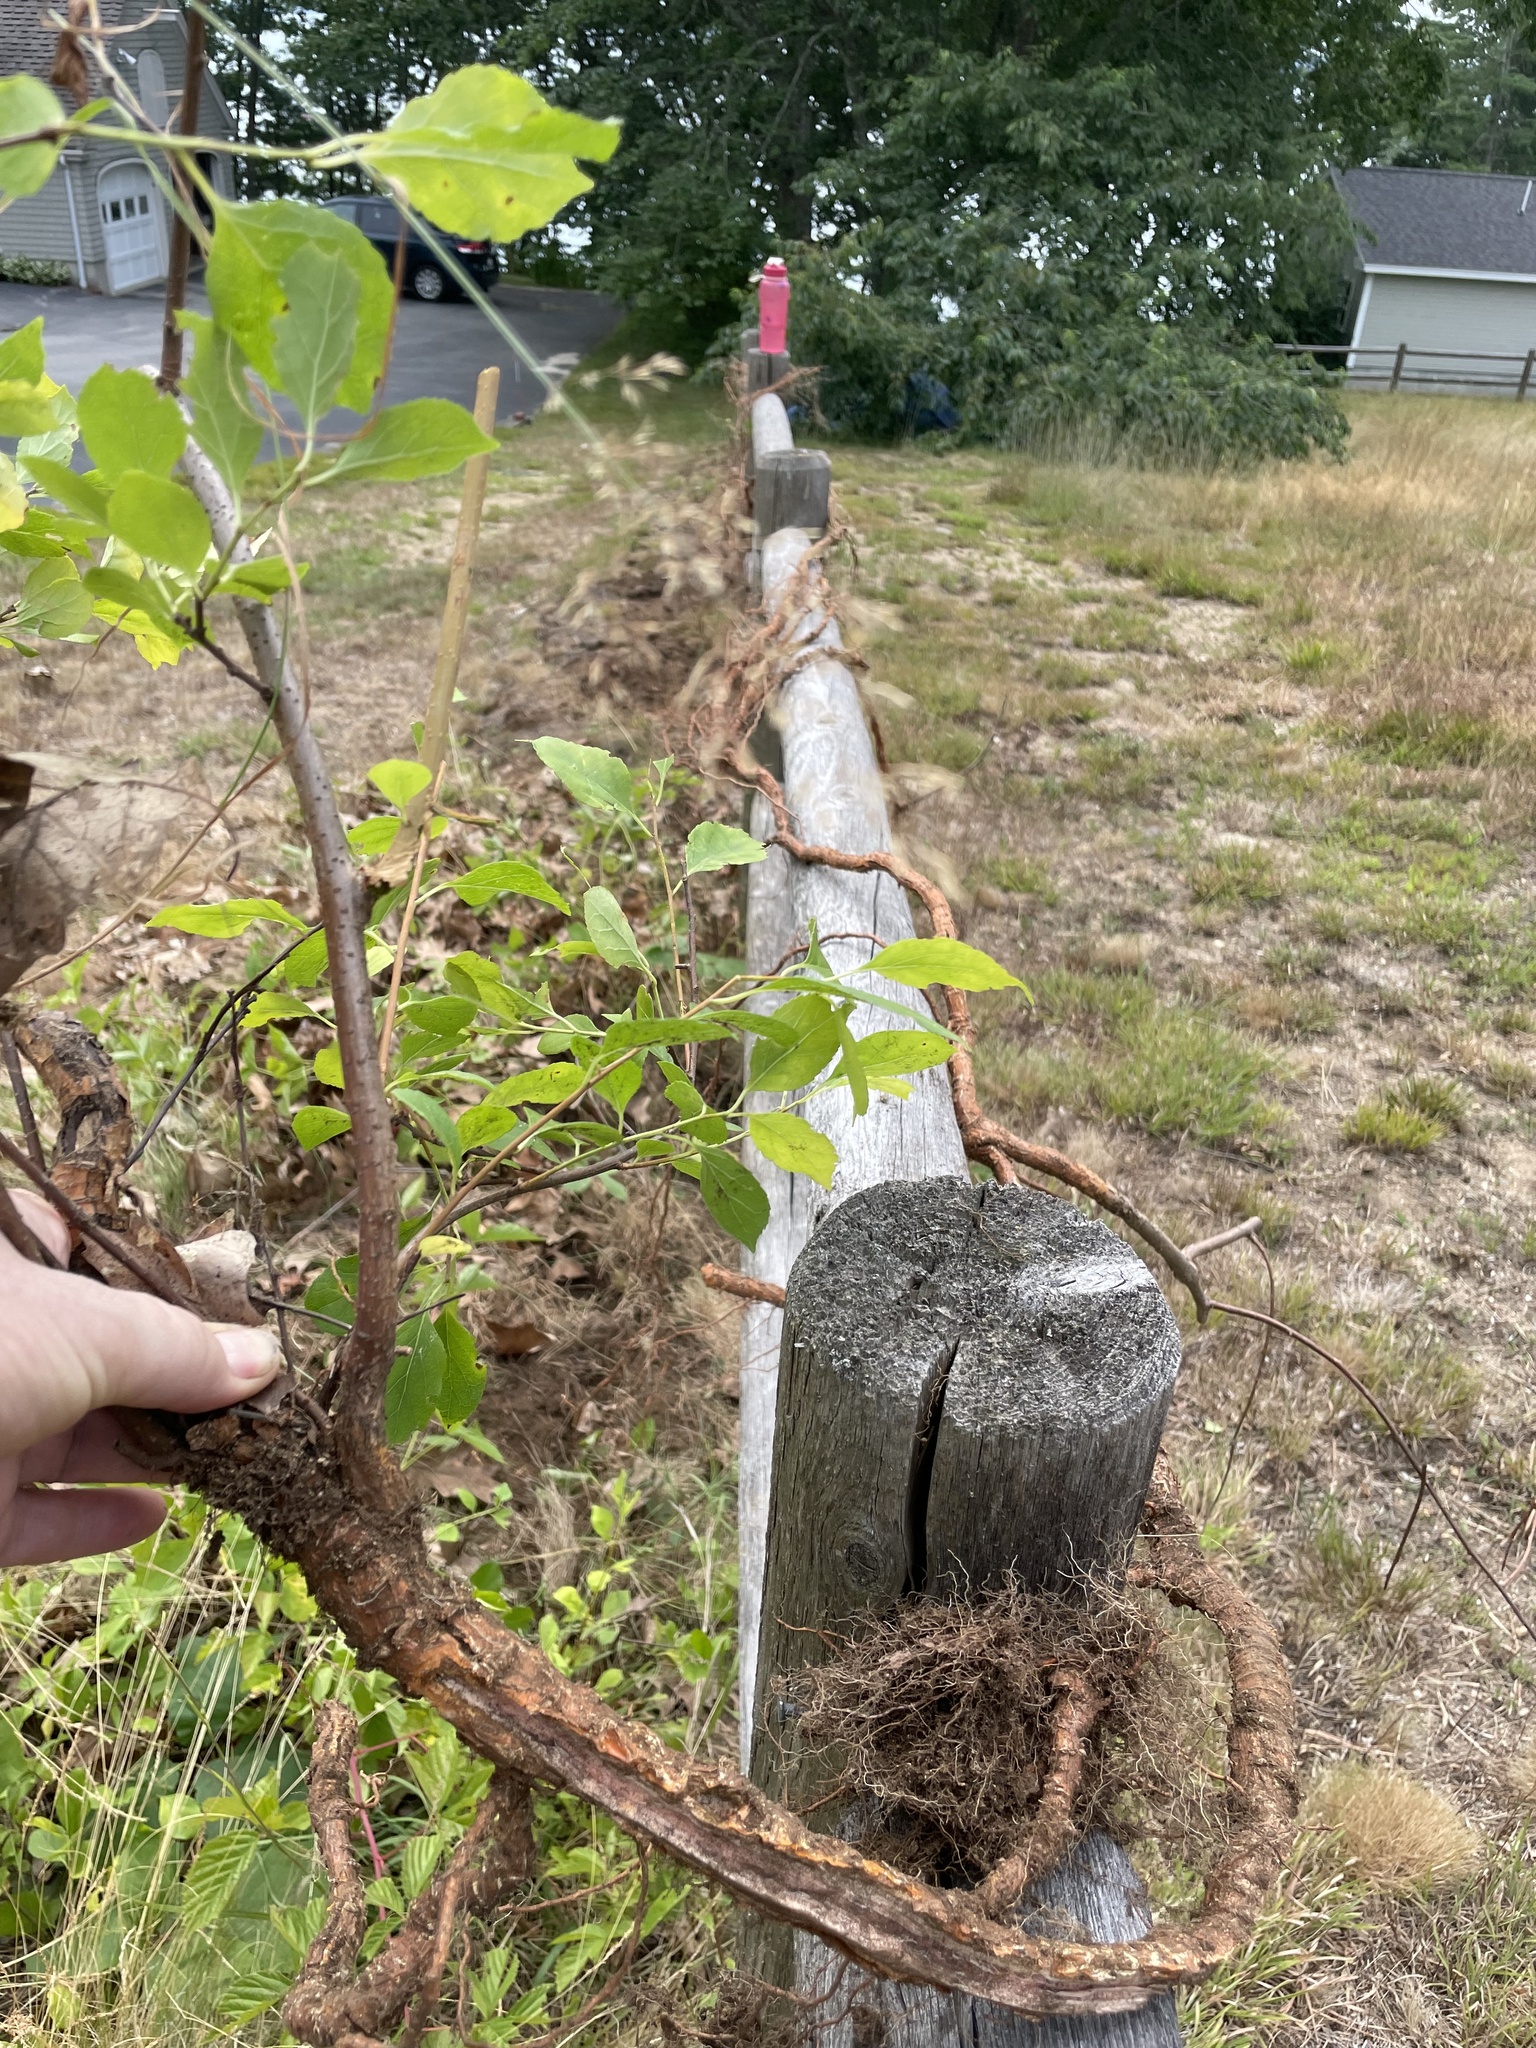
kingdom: Plantae
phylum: Tracheophyta
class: Magnoliopsida
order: Celastrales
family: Celastraceae
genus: Celastrus
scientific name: Celastrus orbiculatus
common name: Oriental bittersweet
